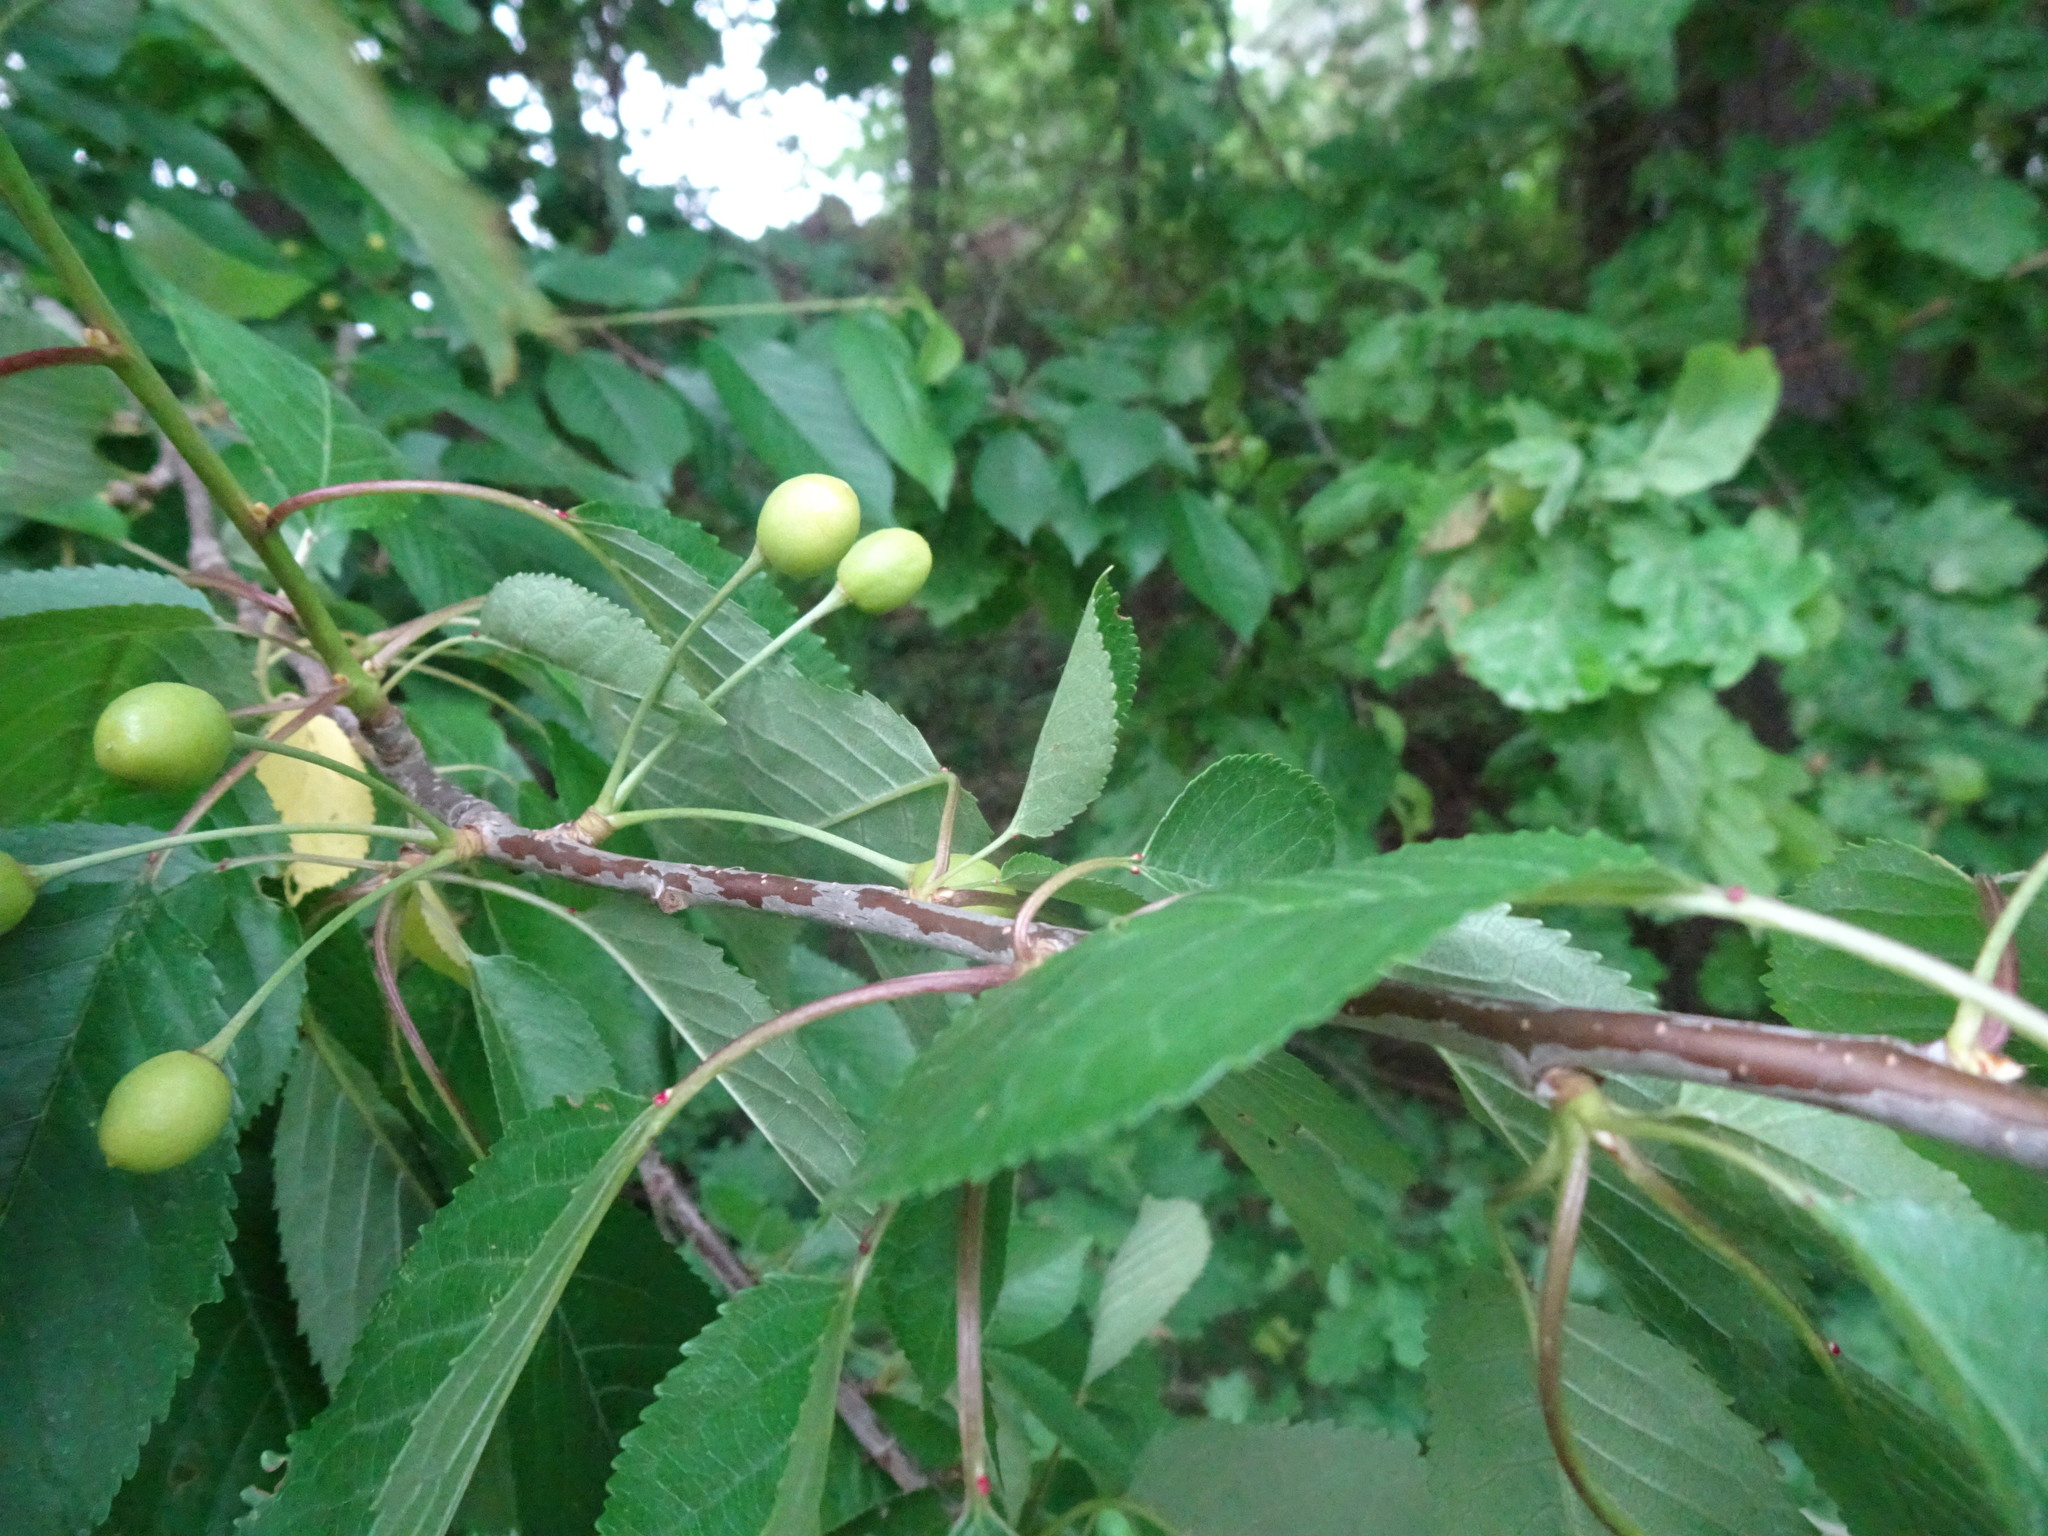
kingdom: Plantae
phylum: Tracheophyta
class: Magnoliopsida
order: Rosales
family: Rosaceae
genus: Prunus
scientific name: Prunus avium
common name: Sweet cherry
